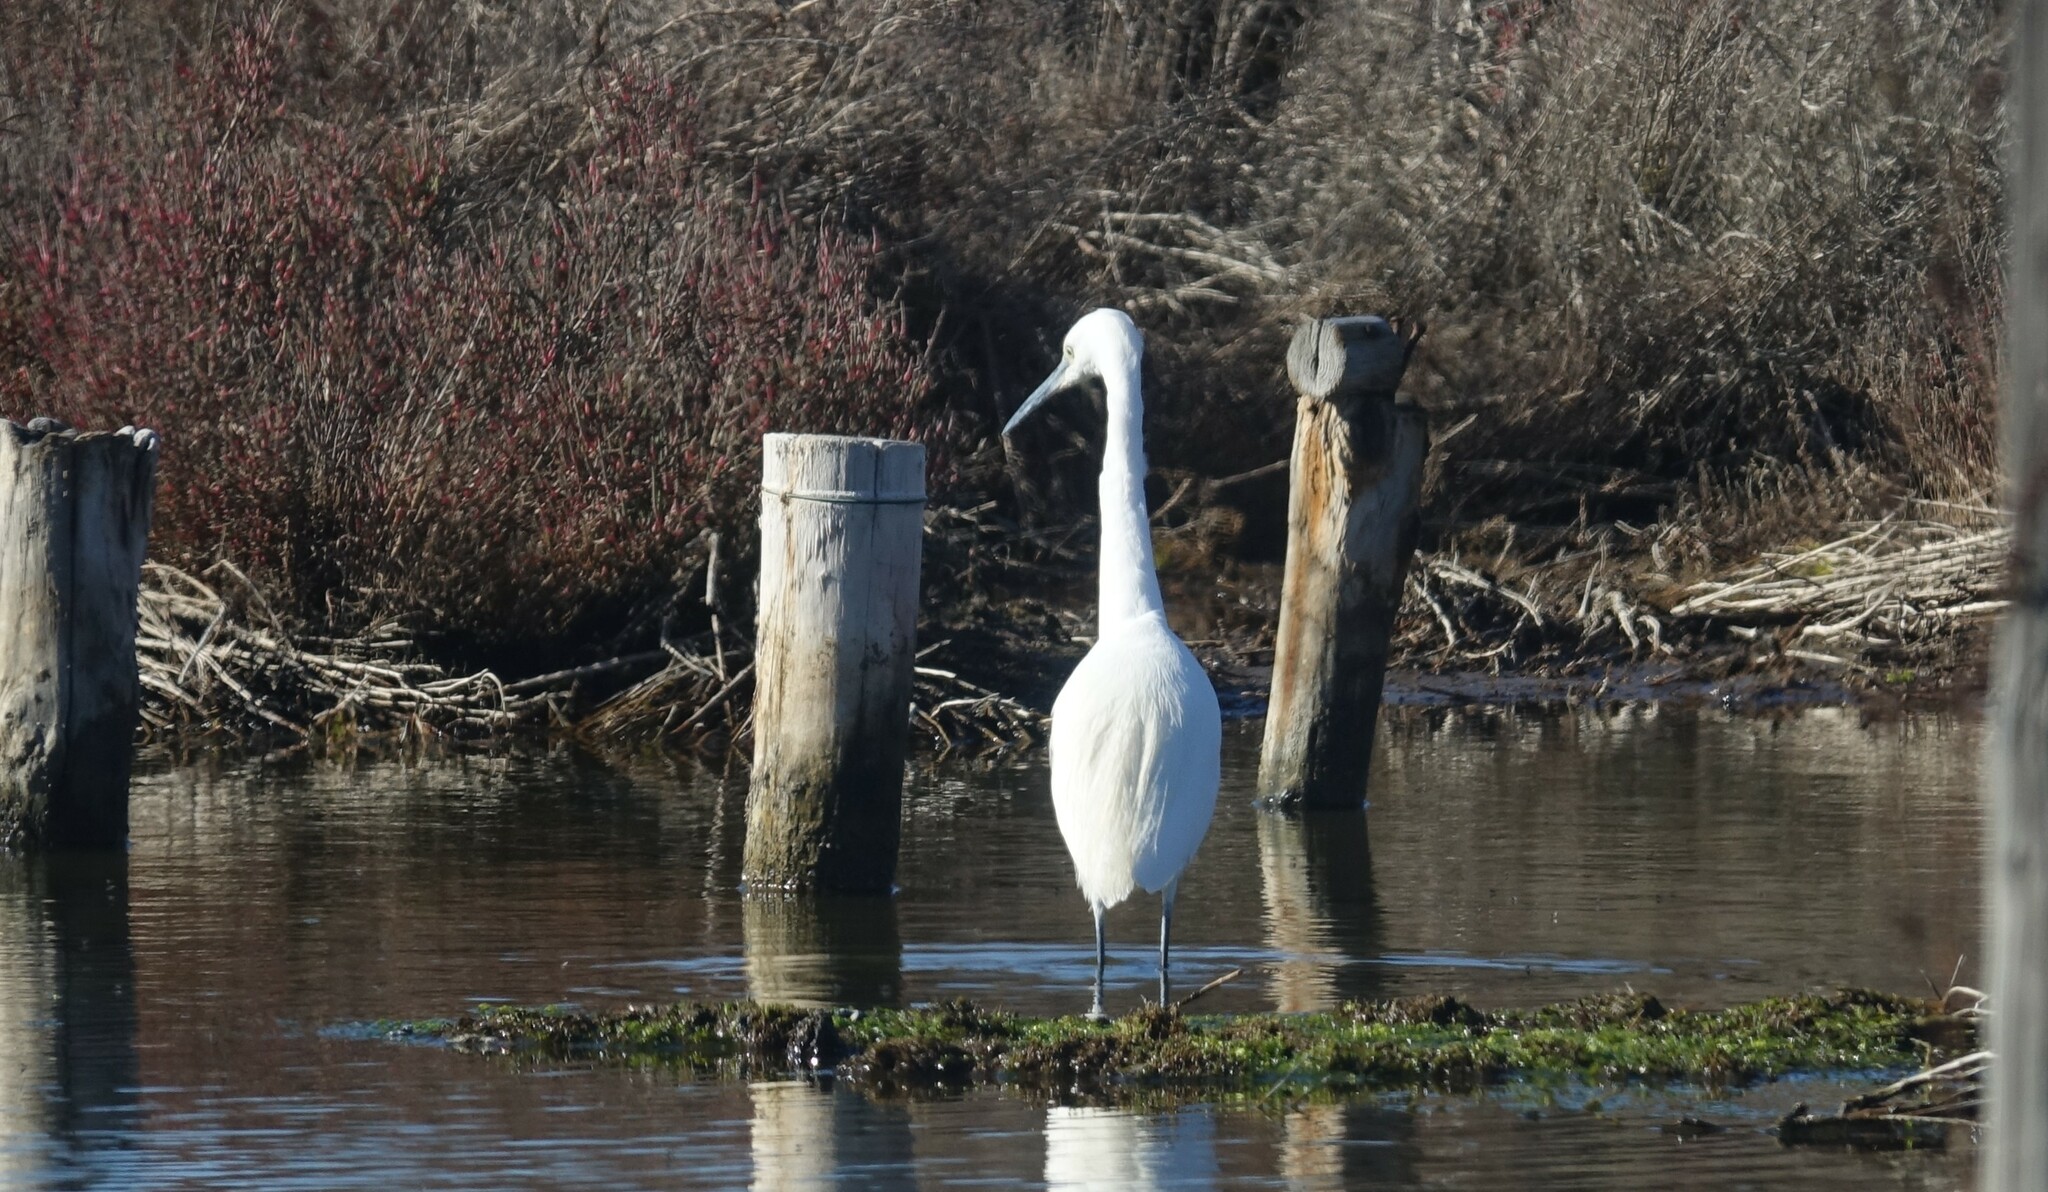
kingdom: Animalia
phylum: Chordata
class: Aves
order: Pelecaniformes
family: Ardeidae
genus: Egretta
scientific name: Egretta garzetta
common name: Little egret
